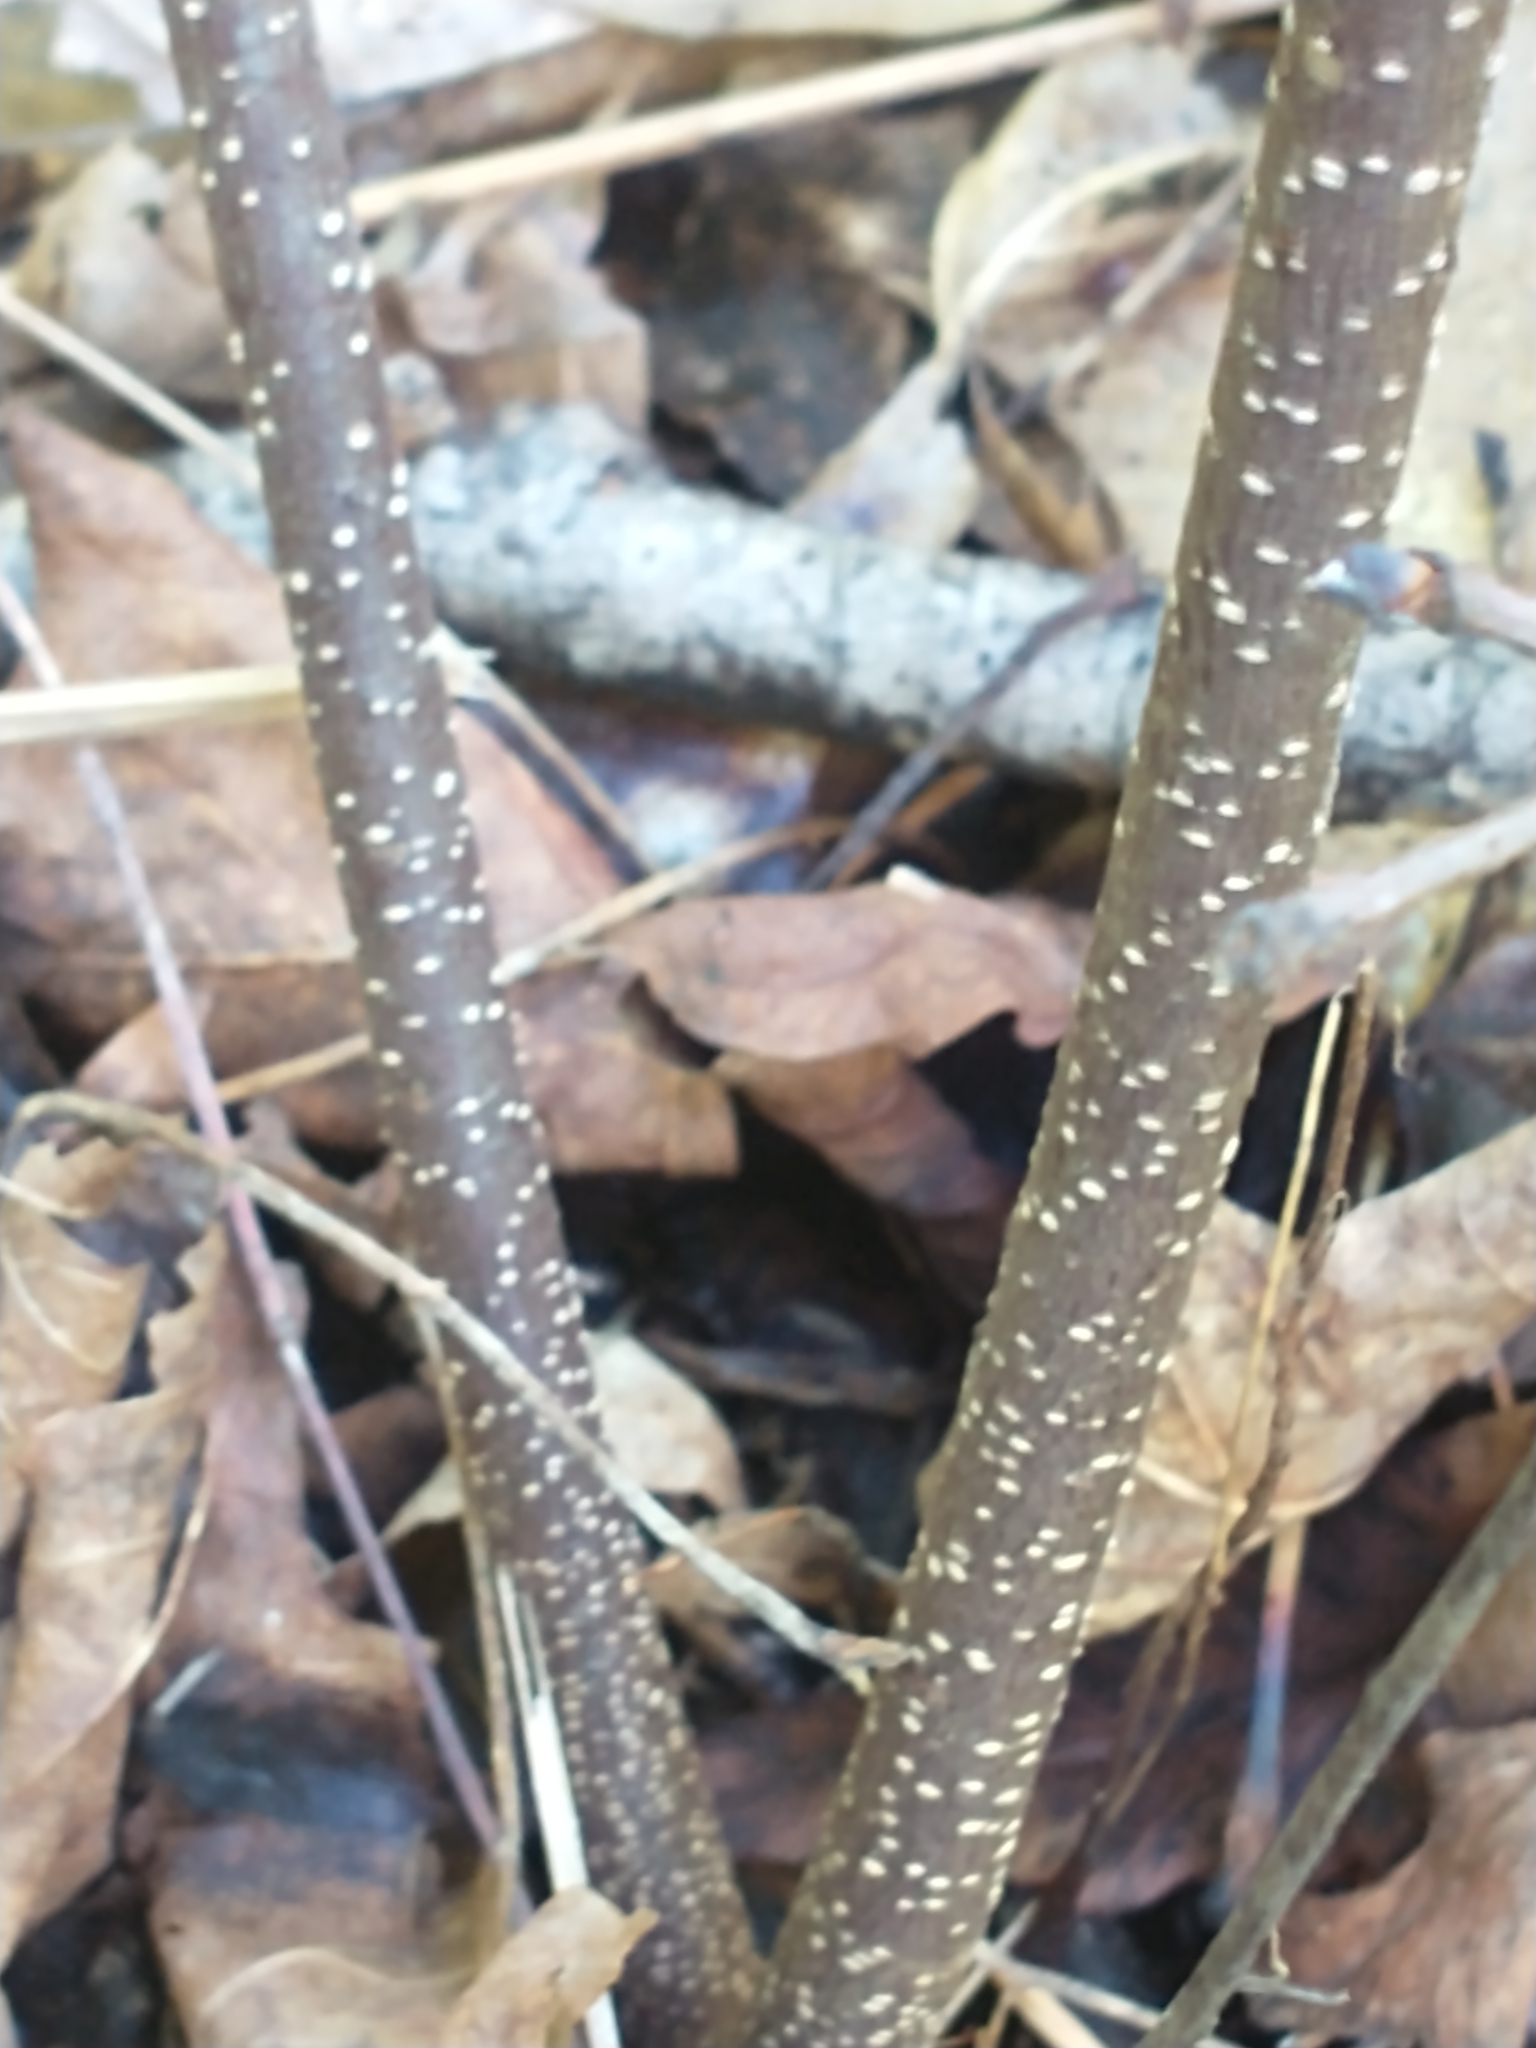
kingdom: Plantae
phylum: Tracheophyta
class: Magnoliopsida
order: Rosales
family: Rhamnaceae
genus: Frangula
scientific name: Frangula alnus
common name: Alder buckthorn
